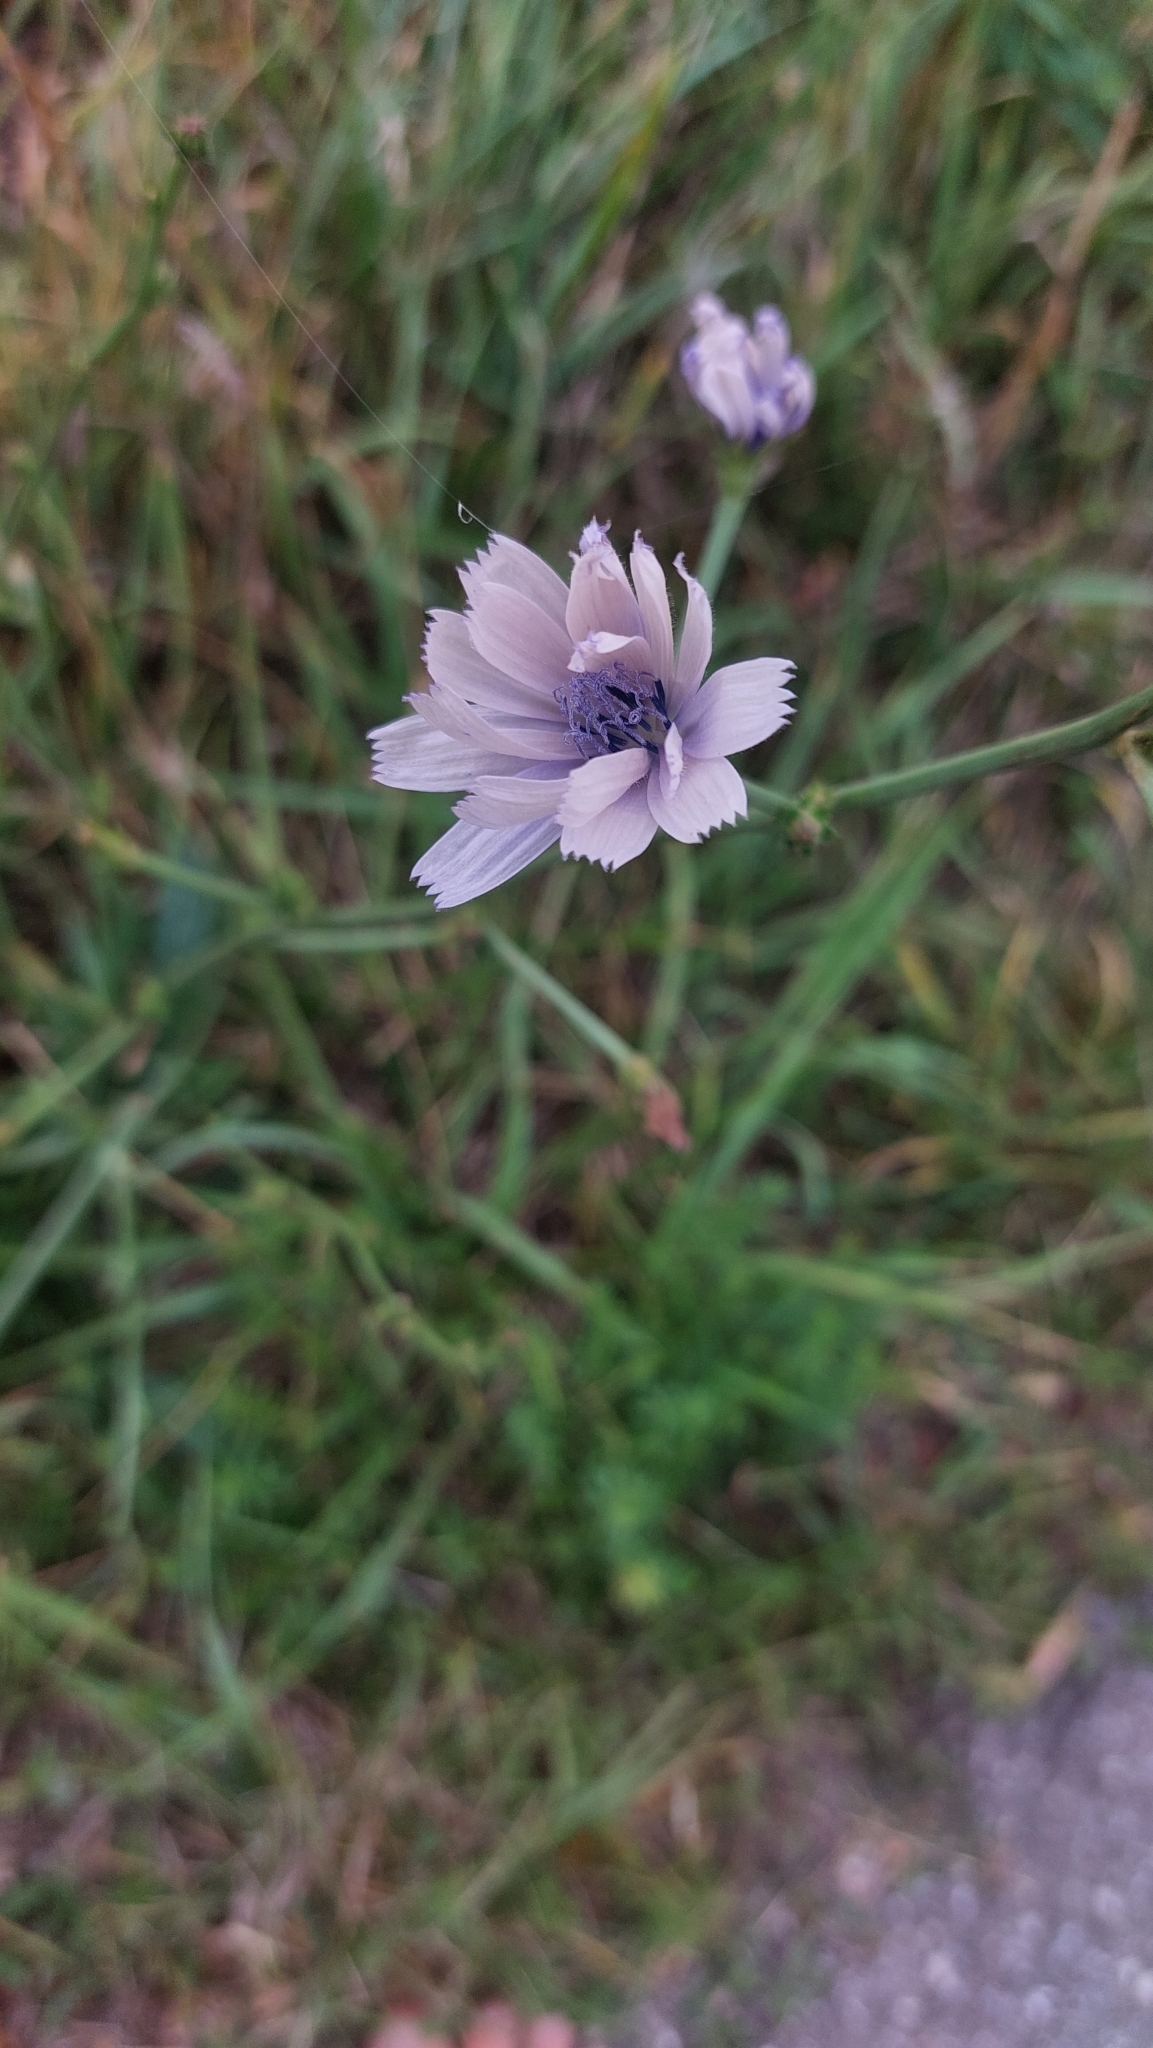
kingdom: Plantae
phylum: Tracheophyta
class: Magnoliopsida
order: Asterales
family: Asteraceae
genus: Cichorium
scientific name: Cichorium intybus
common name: Chicory
